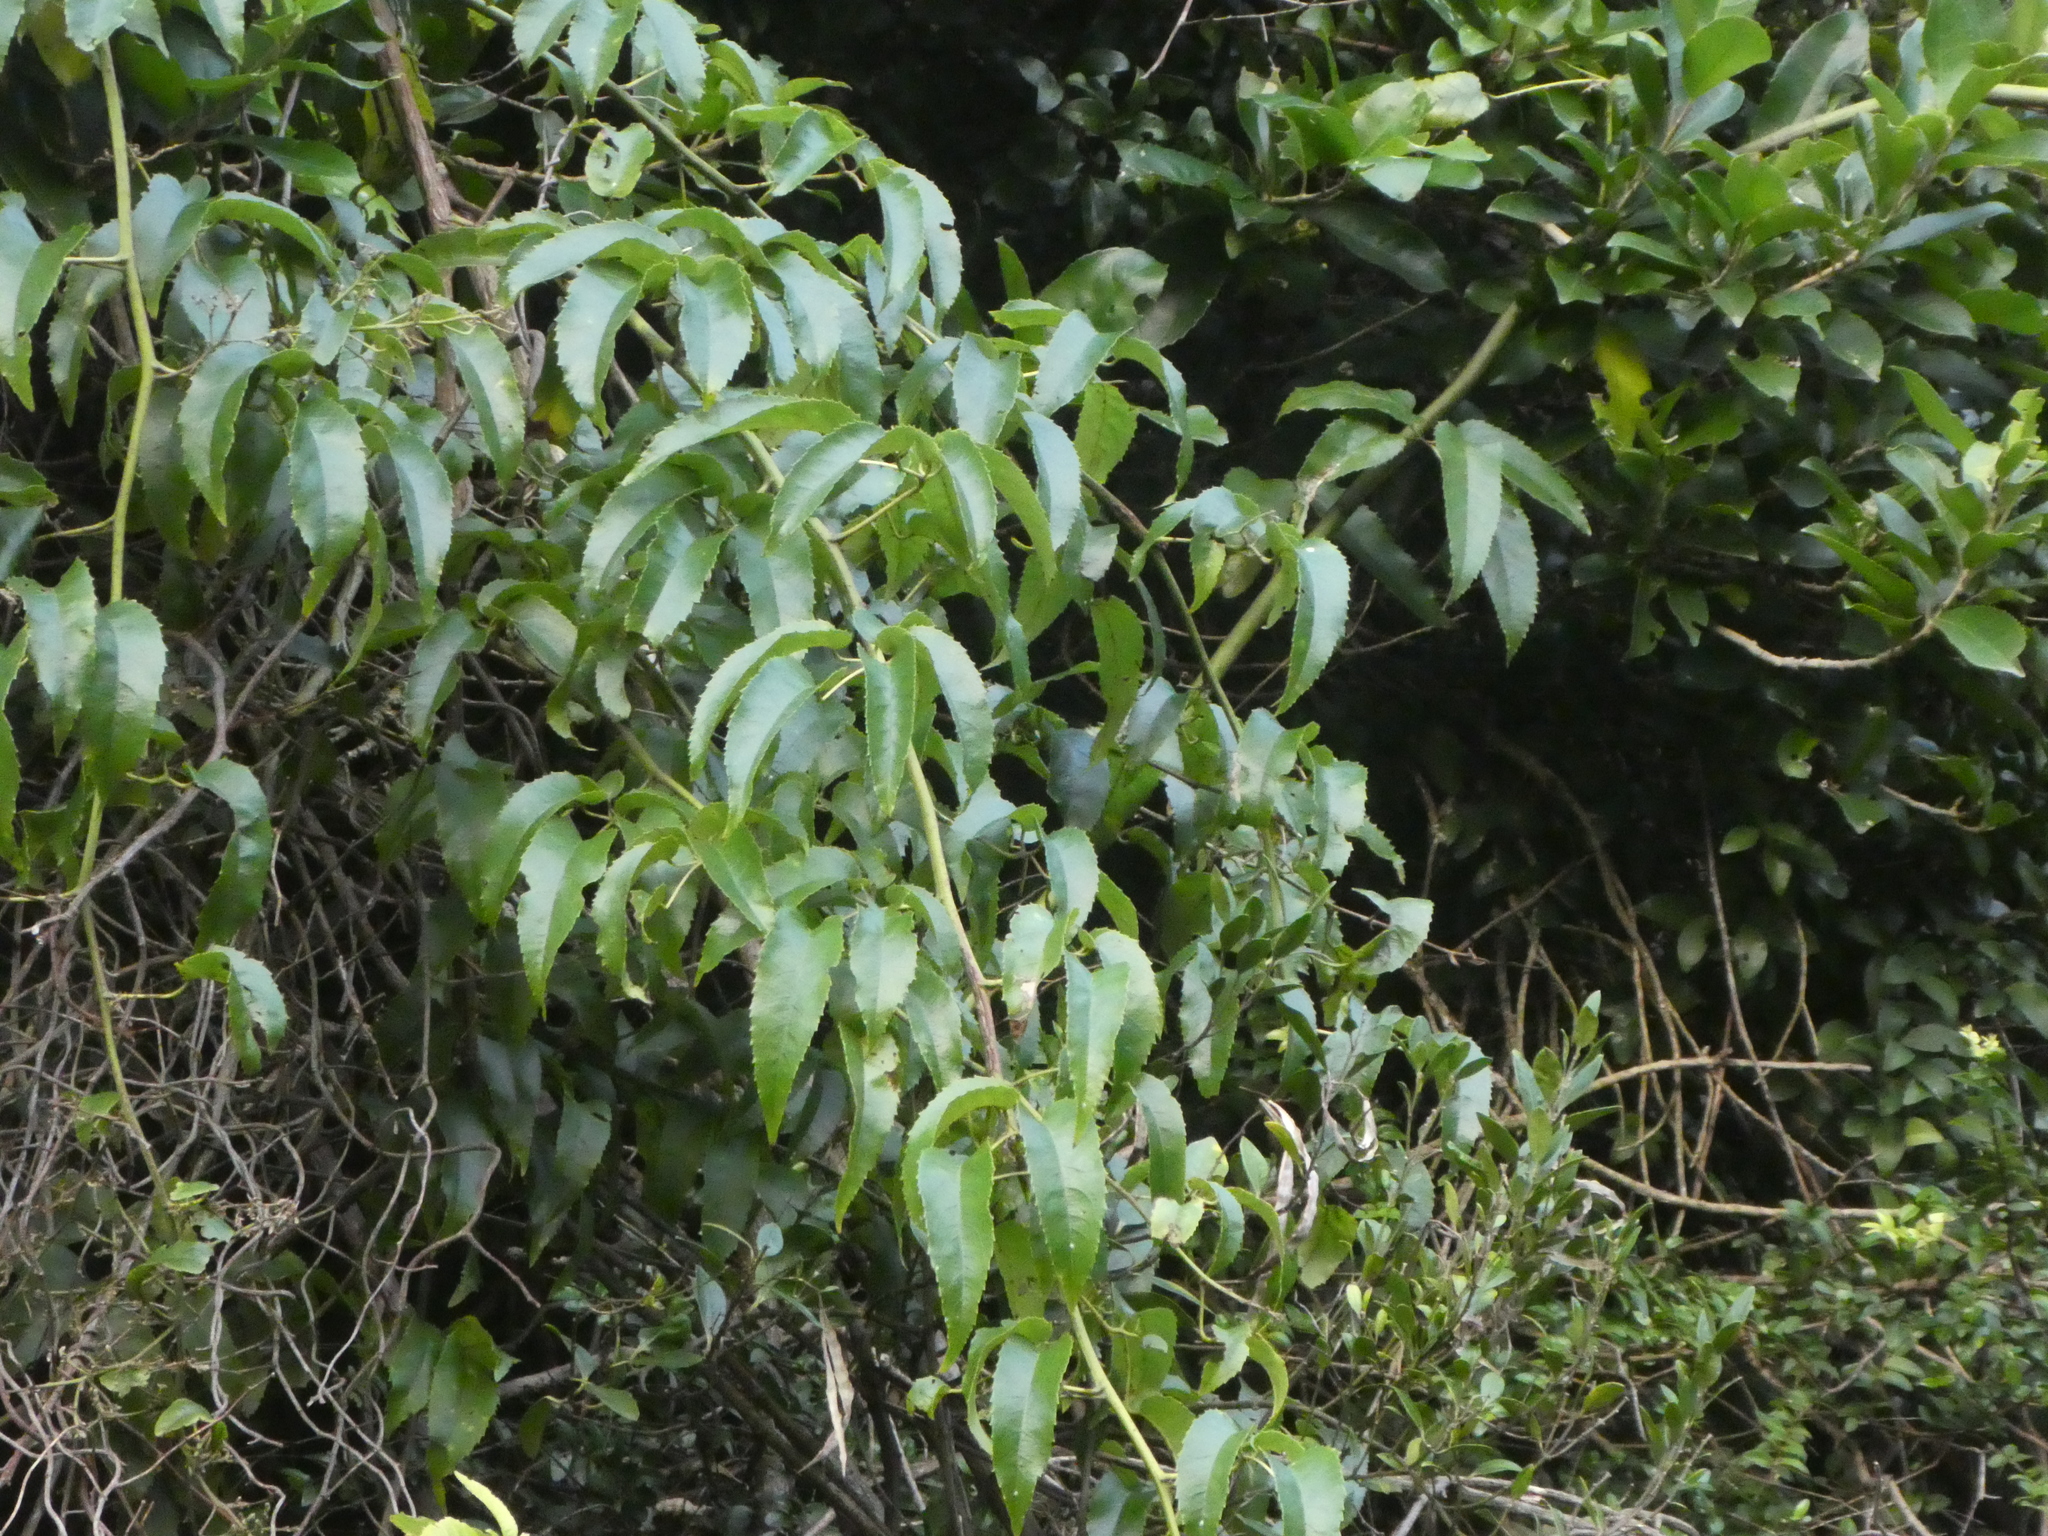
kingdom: Plantae
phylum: Tracheophyta
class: Magnoliopsida
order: Rosales
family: Rosaceae
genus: Rubus
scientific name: Rubus cissoides
